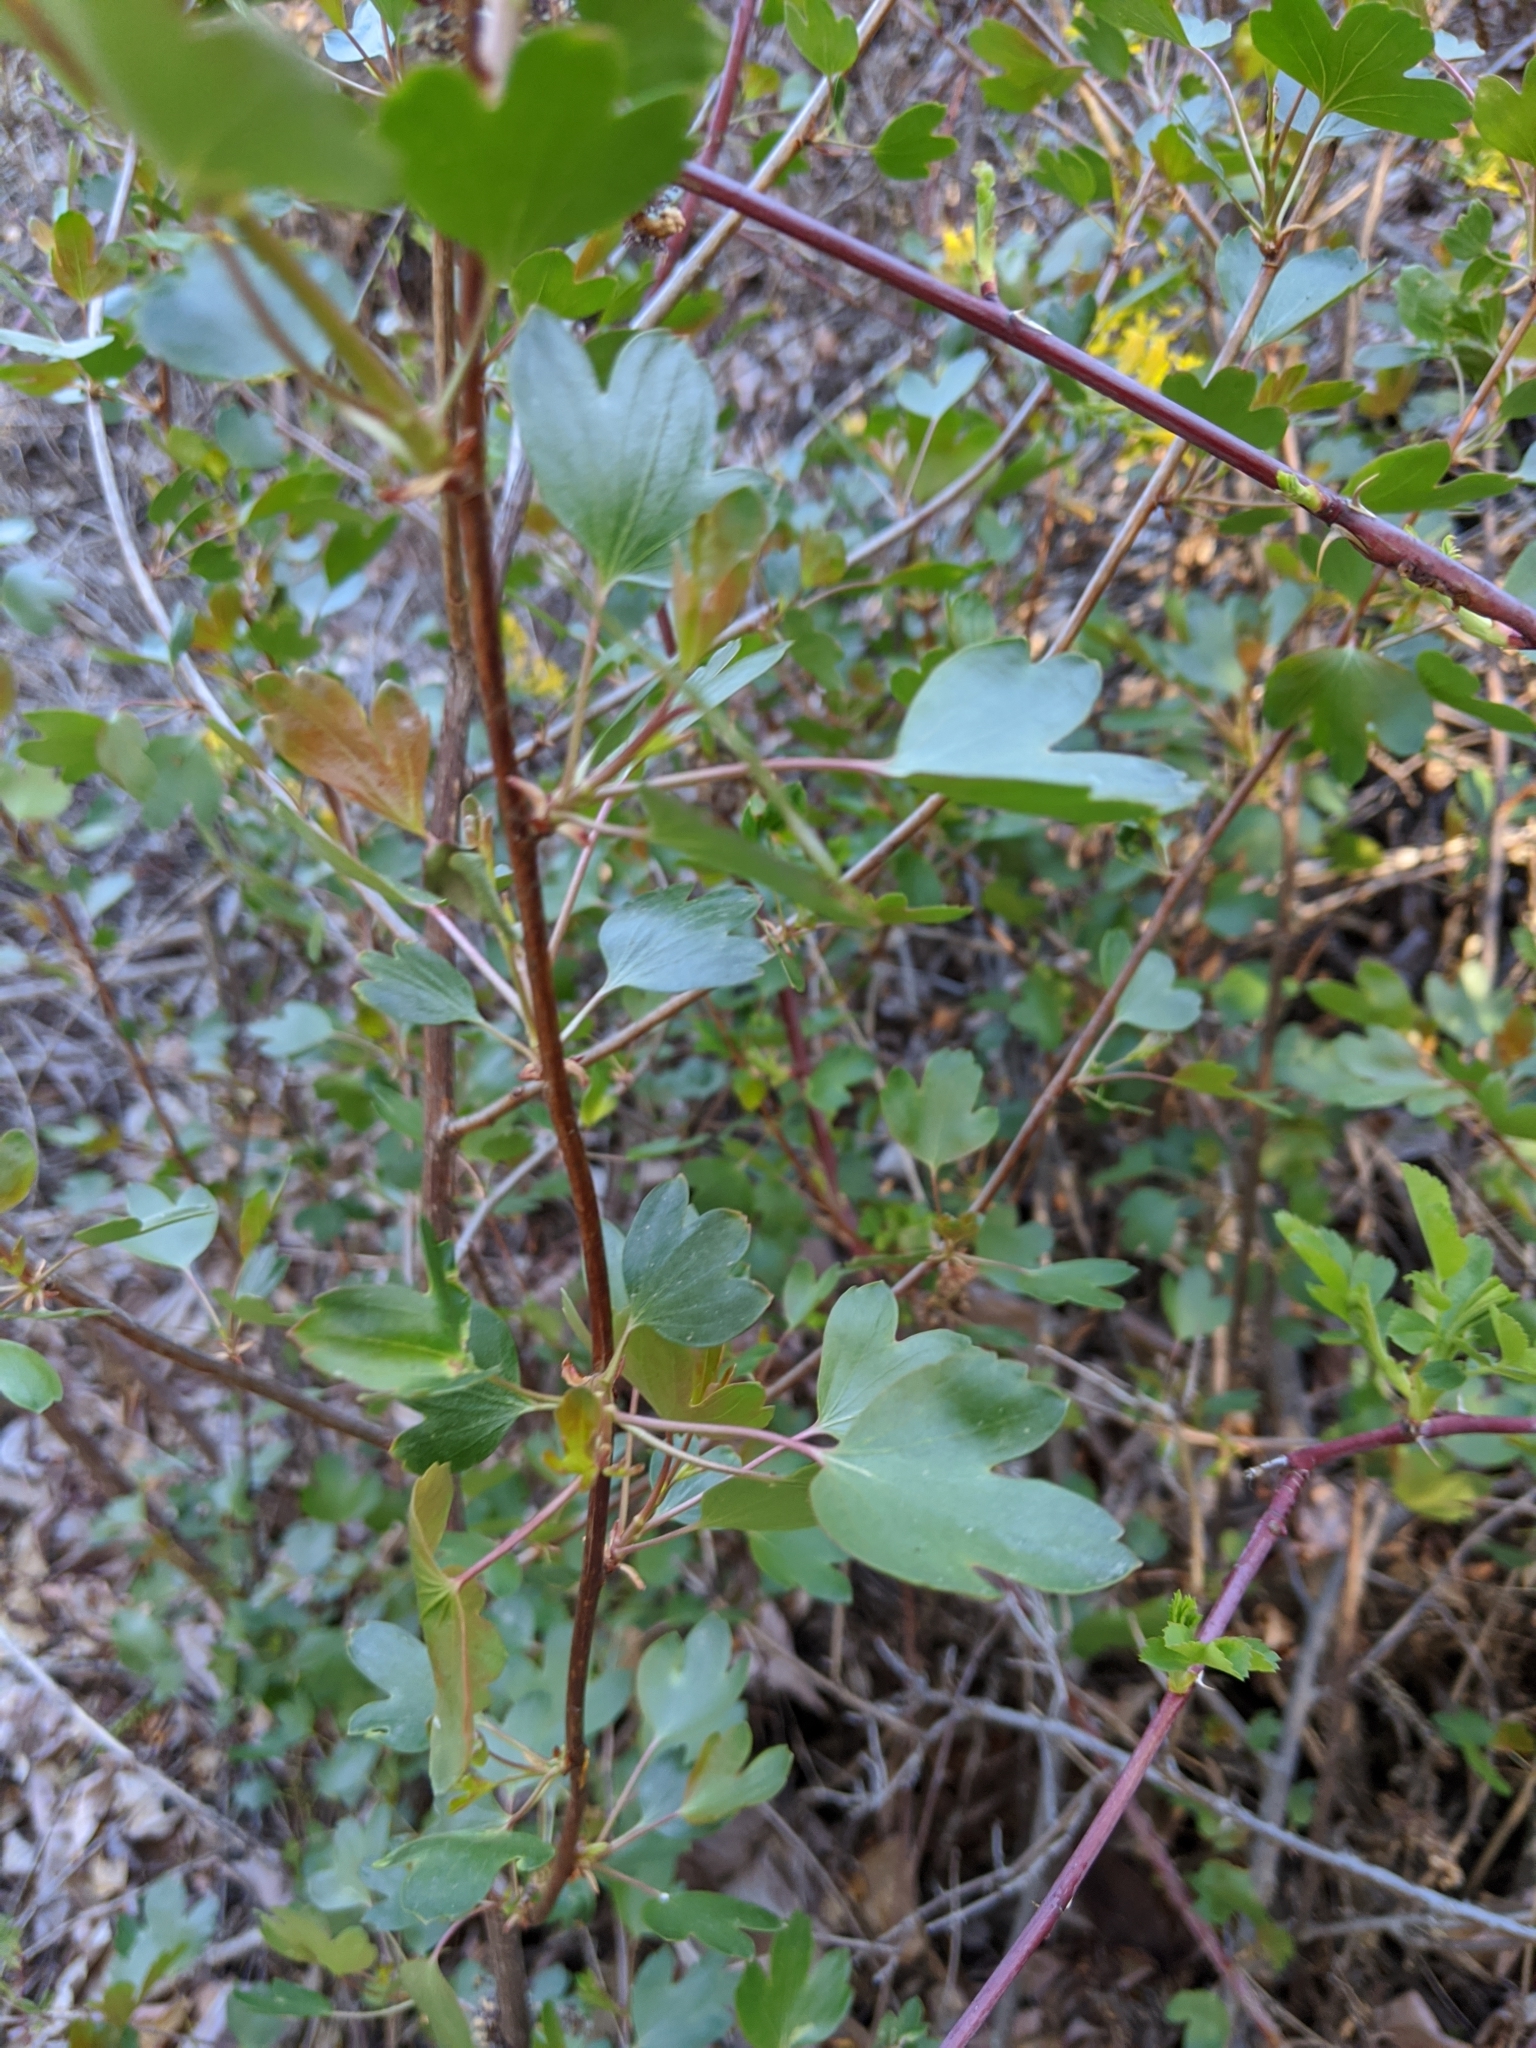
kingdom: Plantae
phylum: Tracheophyta
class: Magnoliopsida
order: Saxifragales
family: Grossulariaceae
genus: Ribes
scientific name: Ribes aureum
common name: Golden currant
